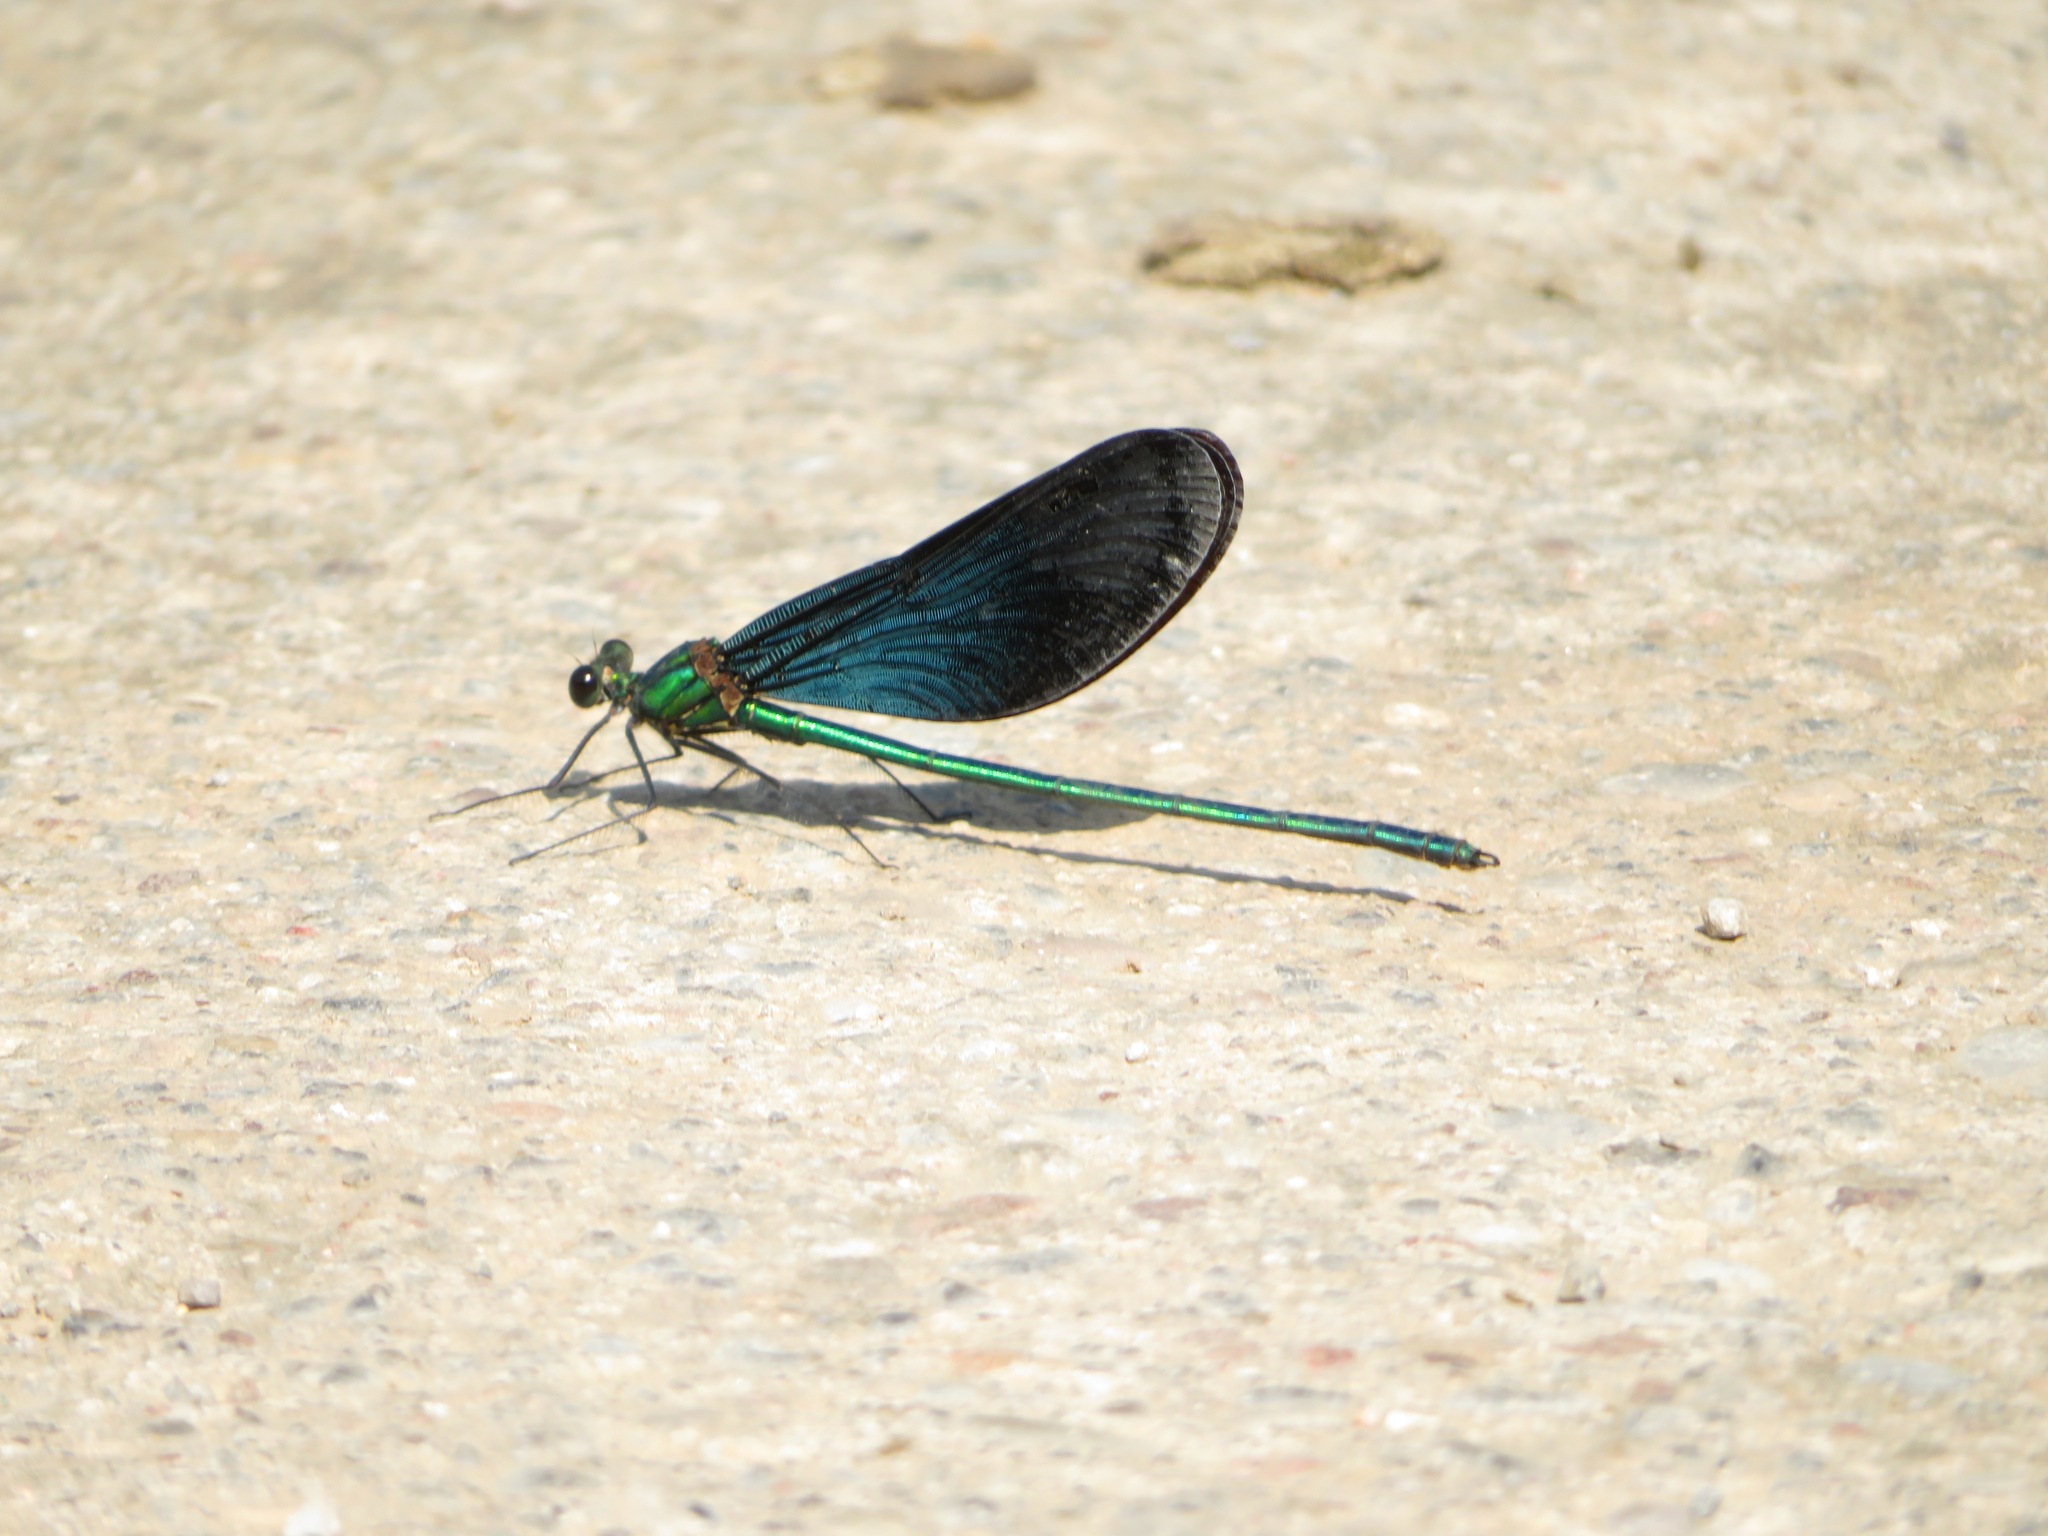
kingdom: Animalia
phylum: Arthropoda
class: Insecta
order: Odonata
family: Calopterygidae
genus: Matrona
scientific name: Matrona basilaris
